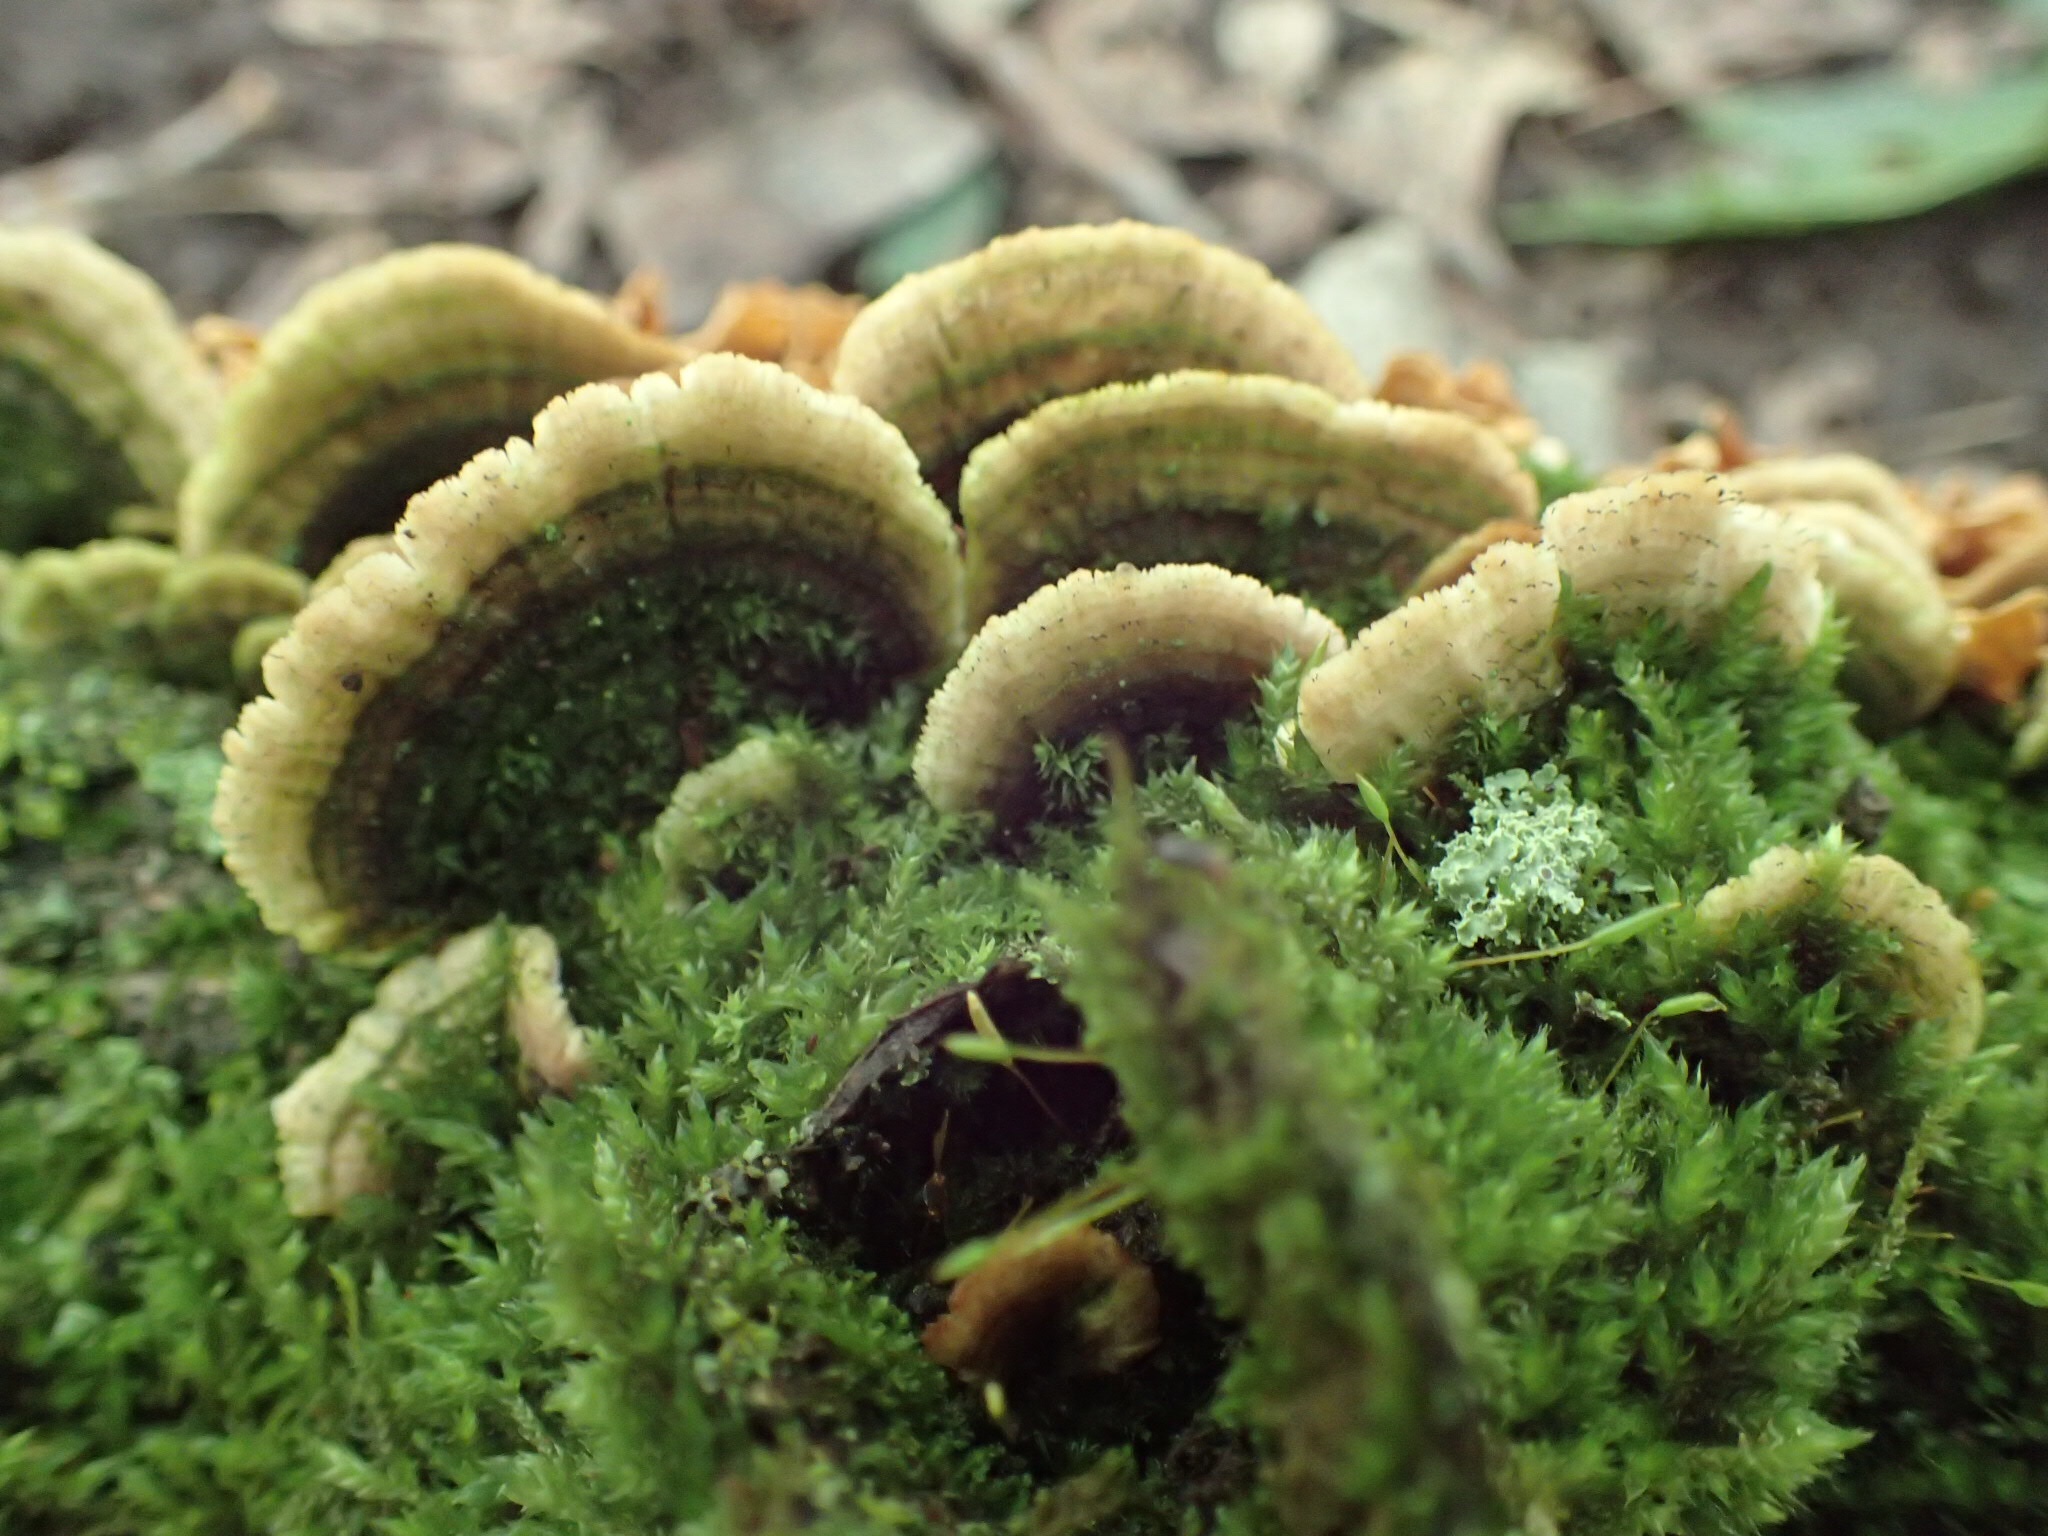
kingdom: Fungi
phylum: Basidiomycota
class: Agaricomycetes
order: Hymenochaetales
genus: Trichaptum
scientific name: Trichaptum biforme
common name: Violet-toothed polypore
